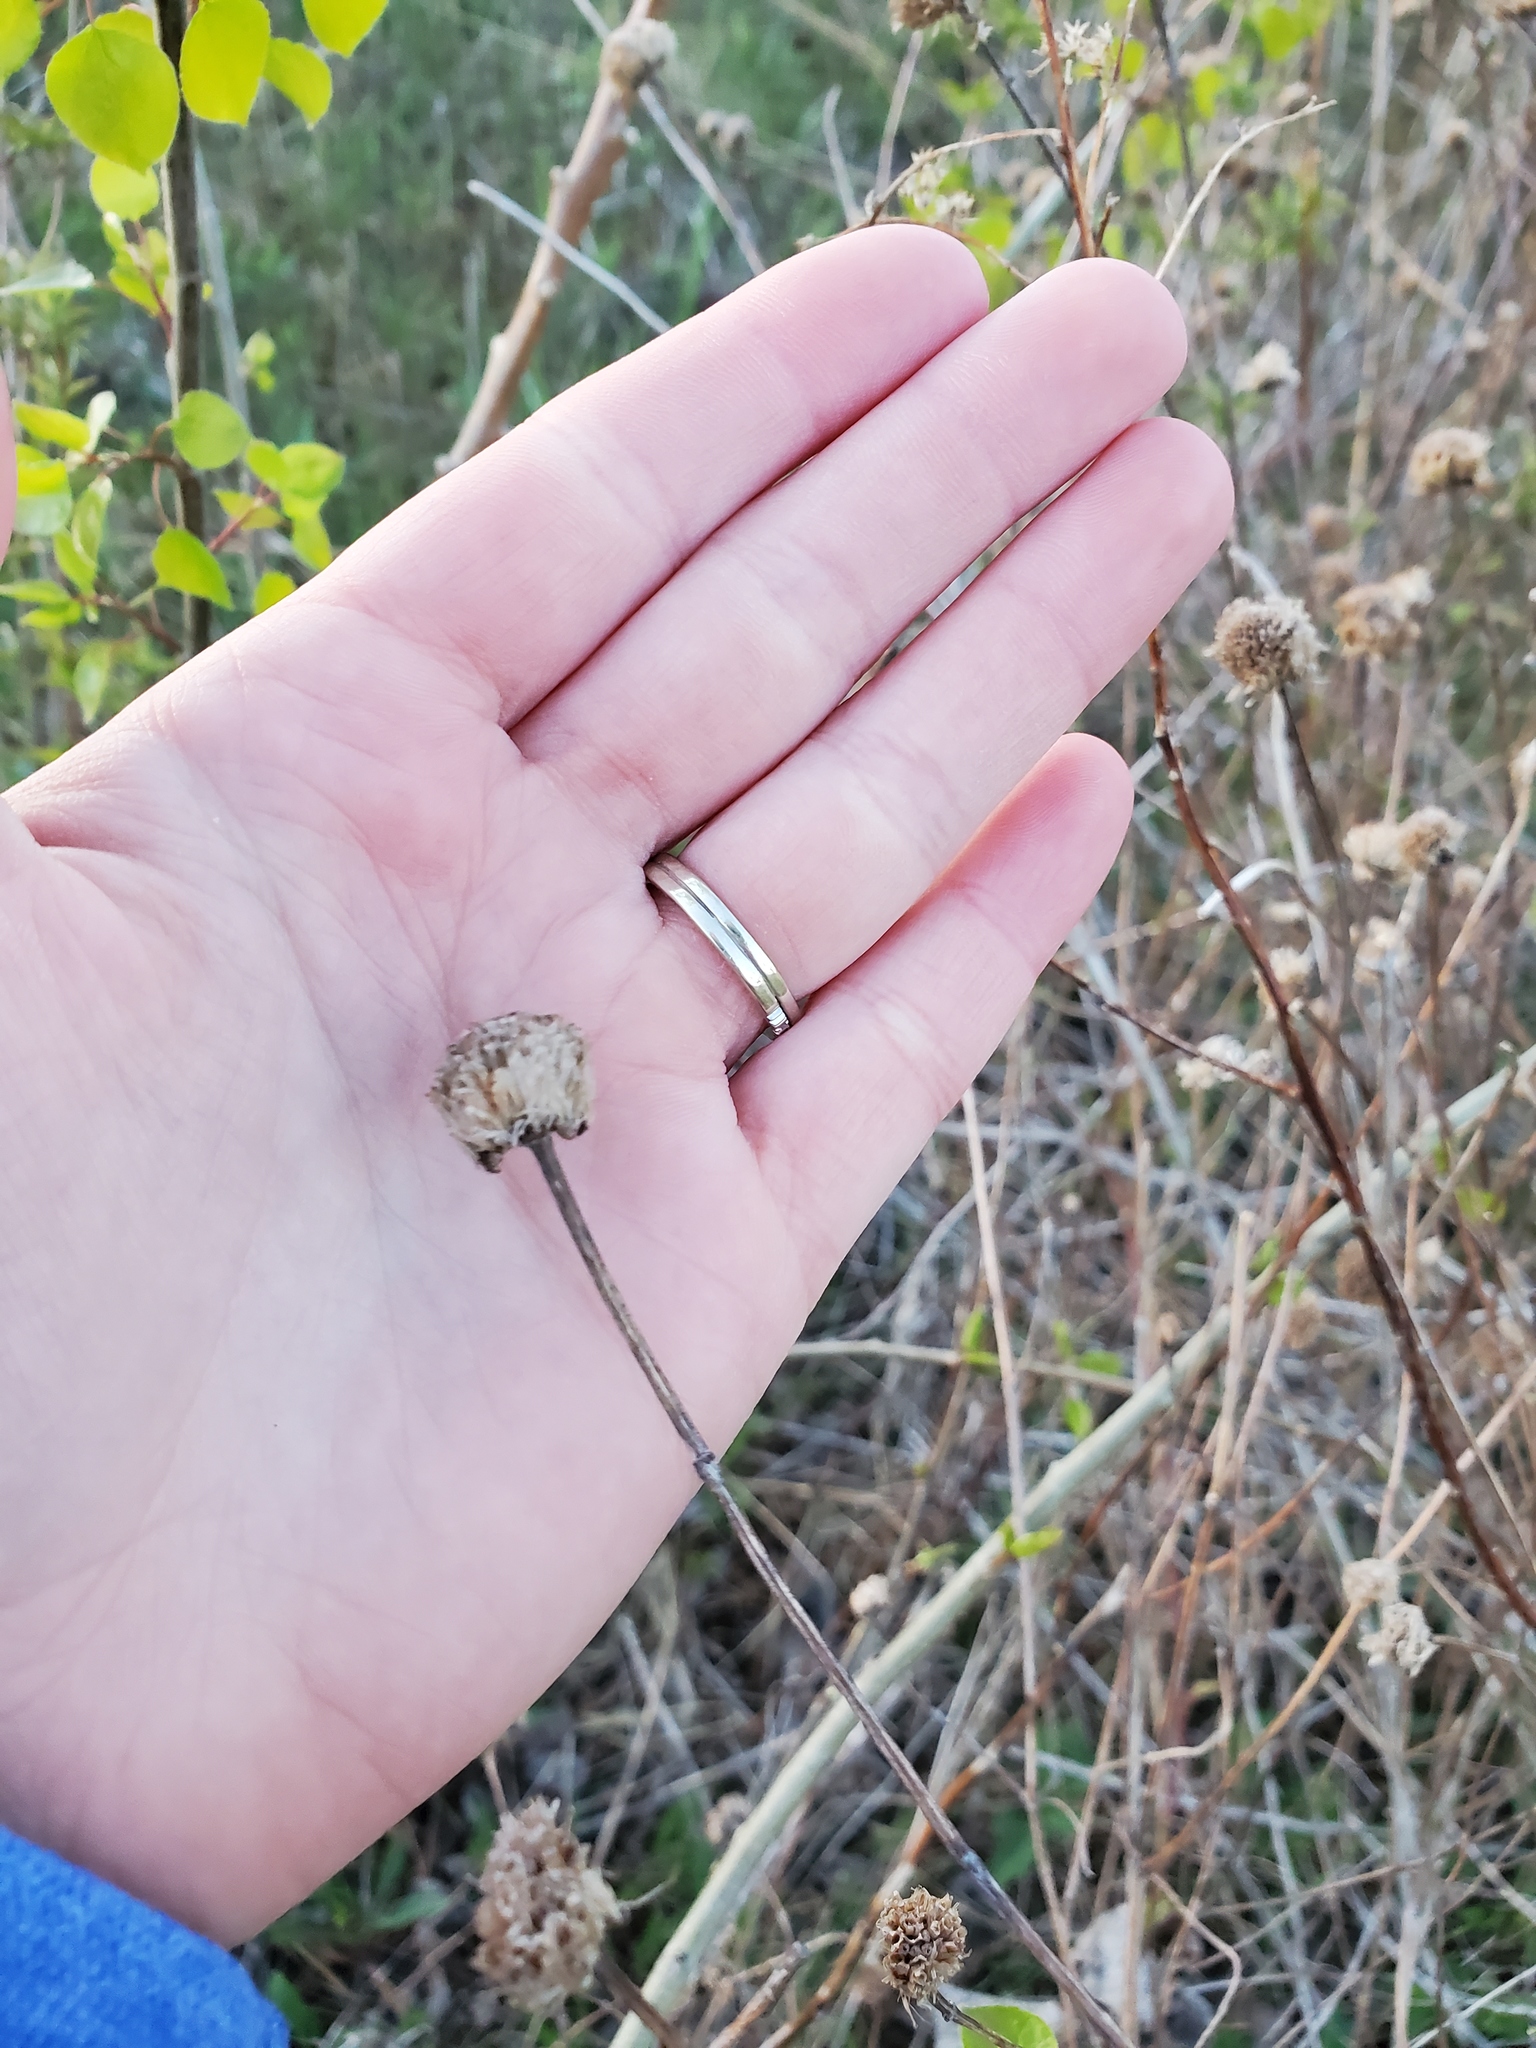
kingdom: Plantae
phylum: Tracheophyta
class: Magnoliopsida
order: Lamiales
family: Lamiaceae
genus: Monarda
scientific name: Monarda fistulosa
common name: Purple beebalm
